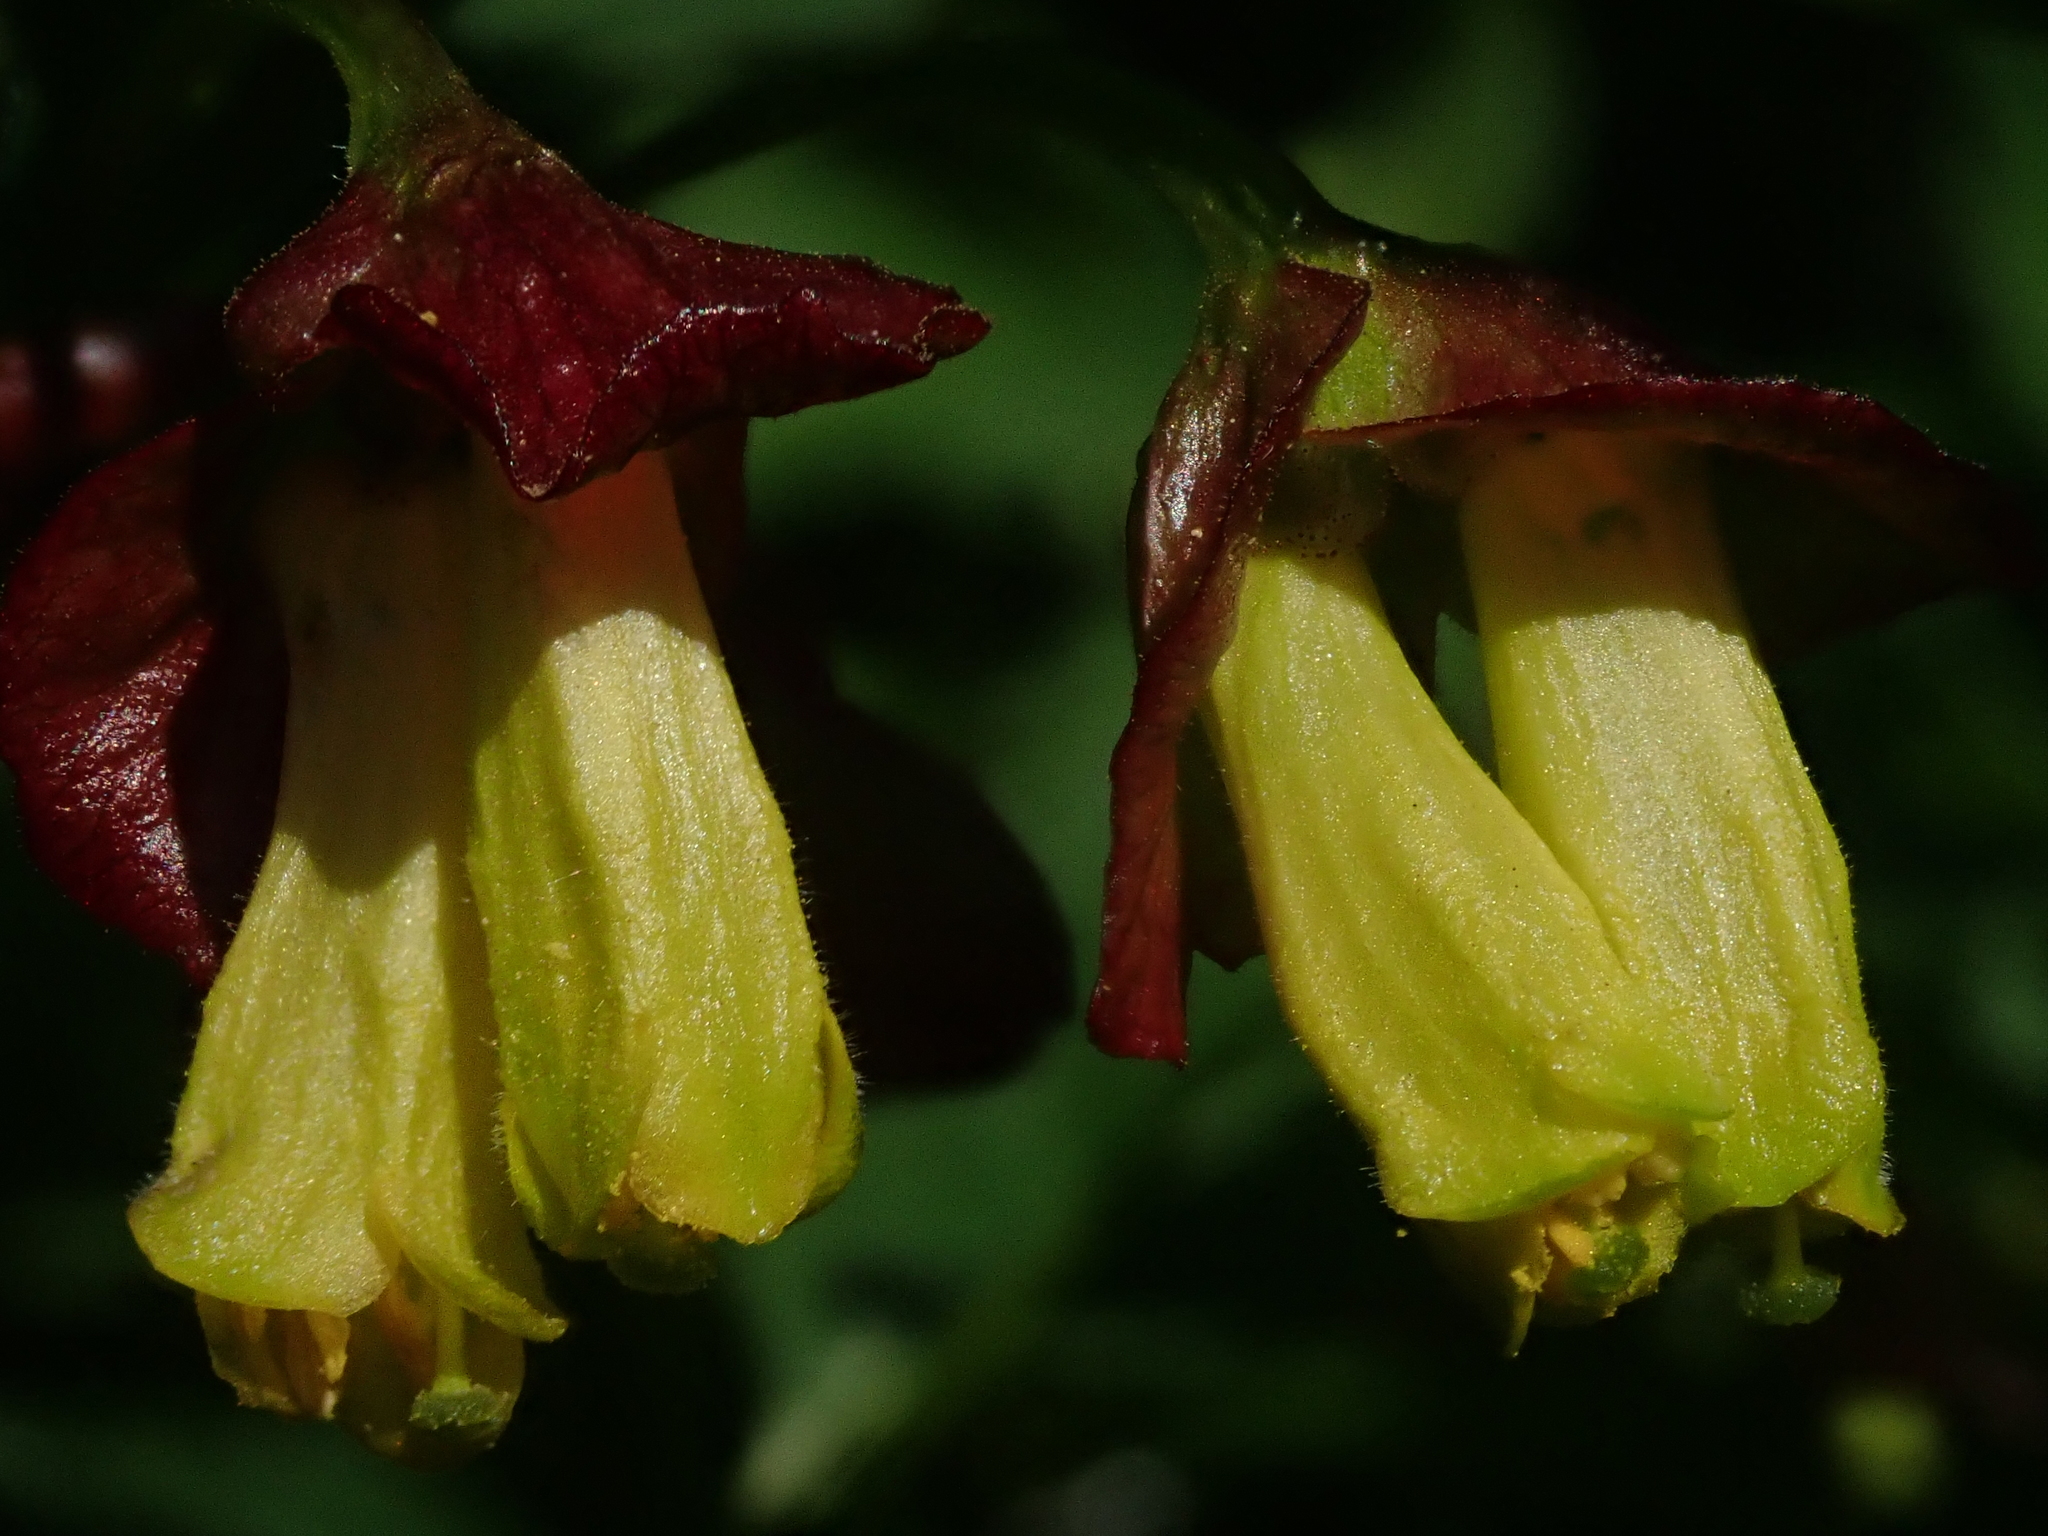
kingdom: Plantae
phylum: Tracheophyta
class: Magnoliopsida
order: Dipsacales
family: Caprifoliaceae
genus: Lonicera
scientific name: Lonicera involucrata
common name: Californian honeysuckle
